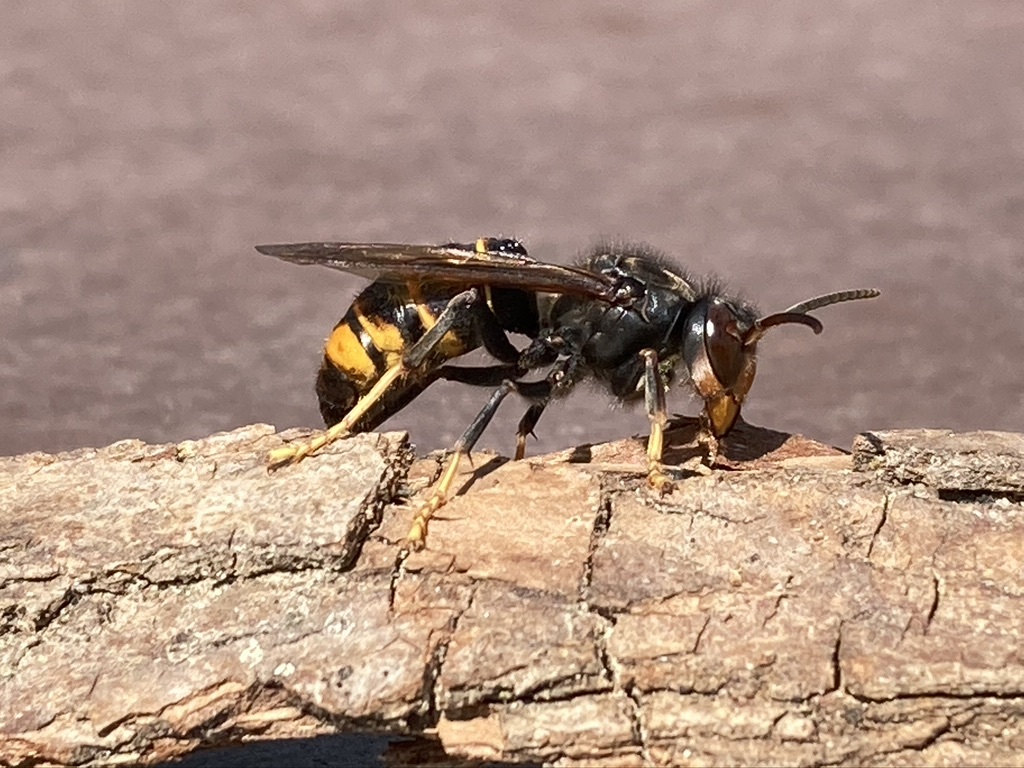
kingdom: Animalia
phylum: Arthropoda
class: Insecta
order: Hymenoptera
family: Vespidae
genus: Vespa
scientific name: Vespa velutina
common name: Asian hornet
